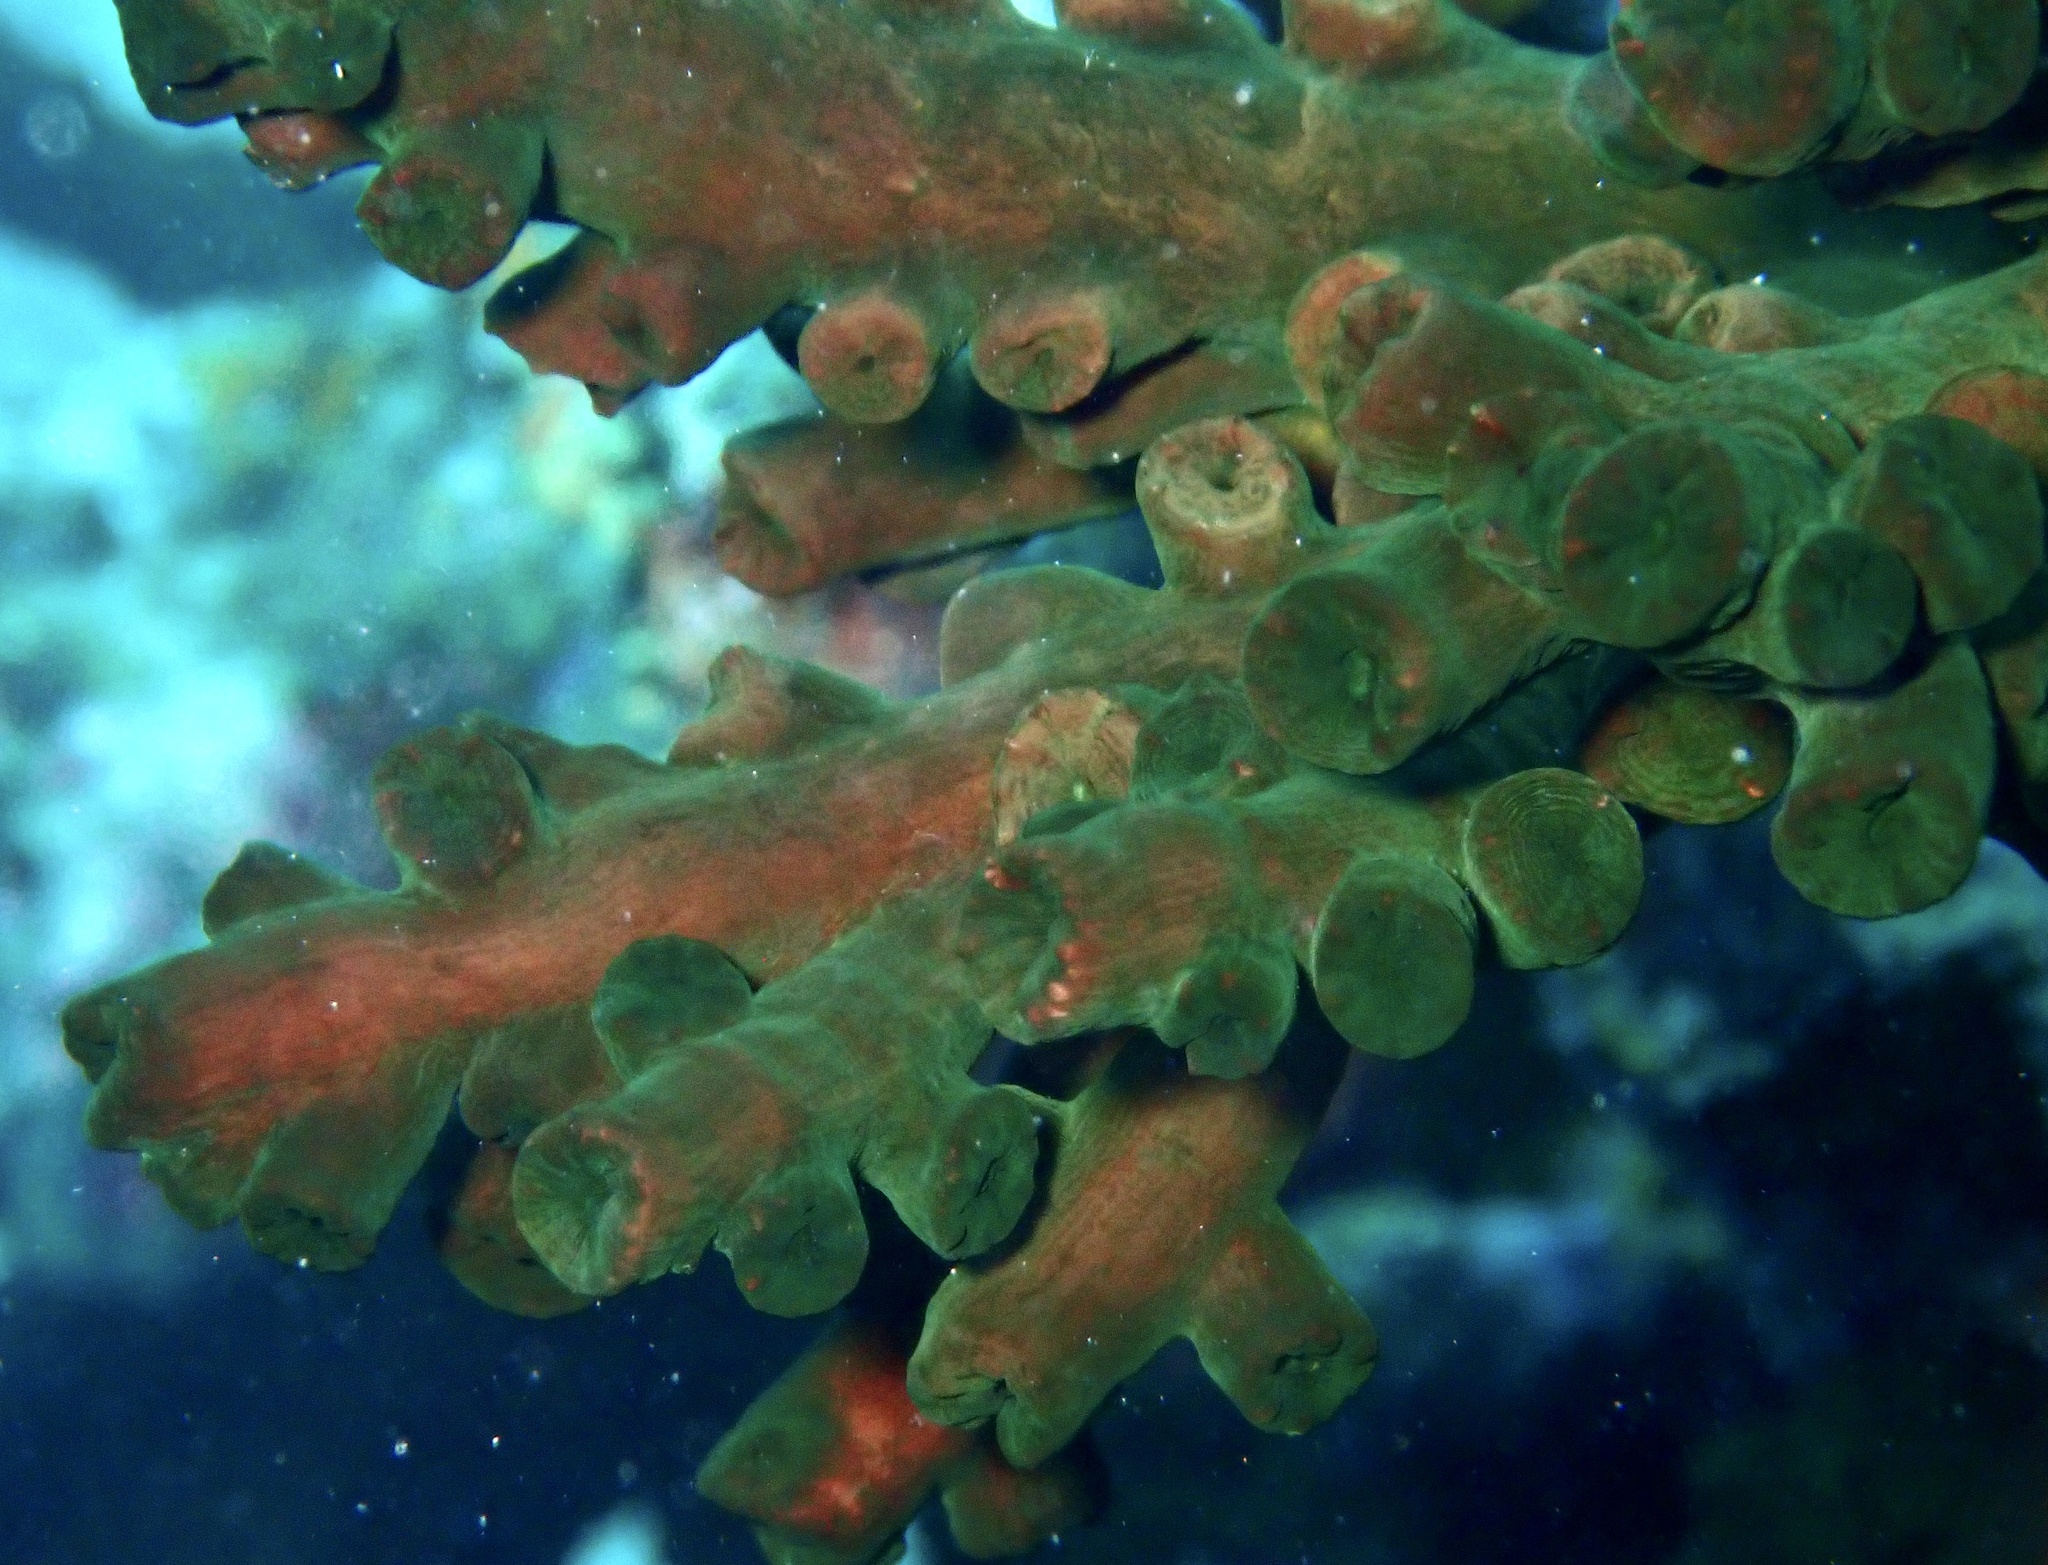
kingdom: Animalia
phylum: Cnidaria
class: Anthozoa
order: Scleractinia
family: Dendrophylliidae
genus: Tubastraea
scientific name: Tubastraea micranthus
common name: Black sun coral
